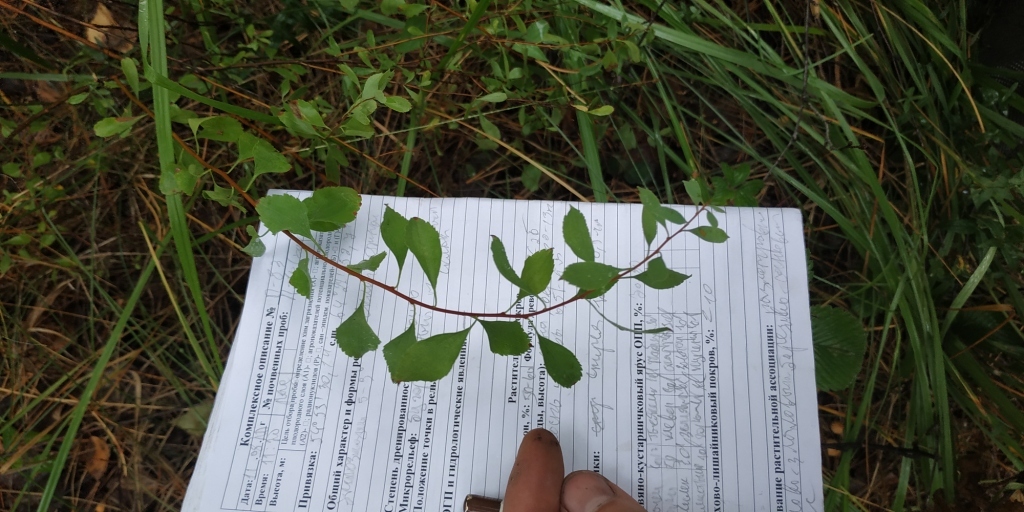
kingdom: Plantae
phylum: Tracheophyta
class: Magnoliopsida
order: Rosales
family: Rosaceae
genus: Spiraea
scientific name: Spiraea crenata
